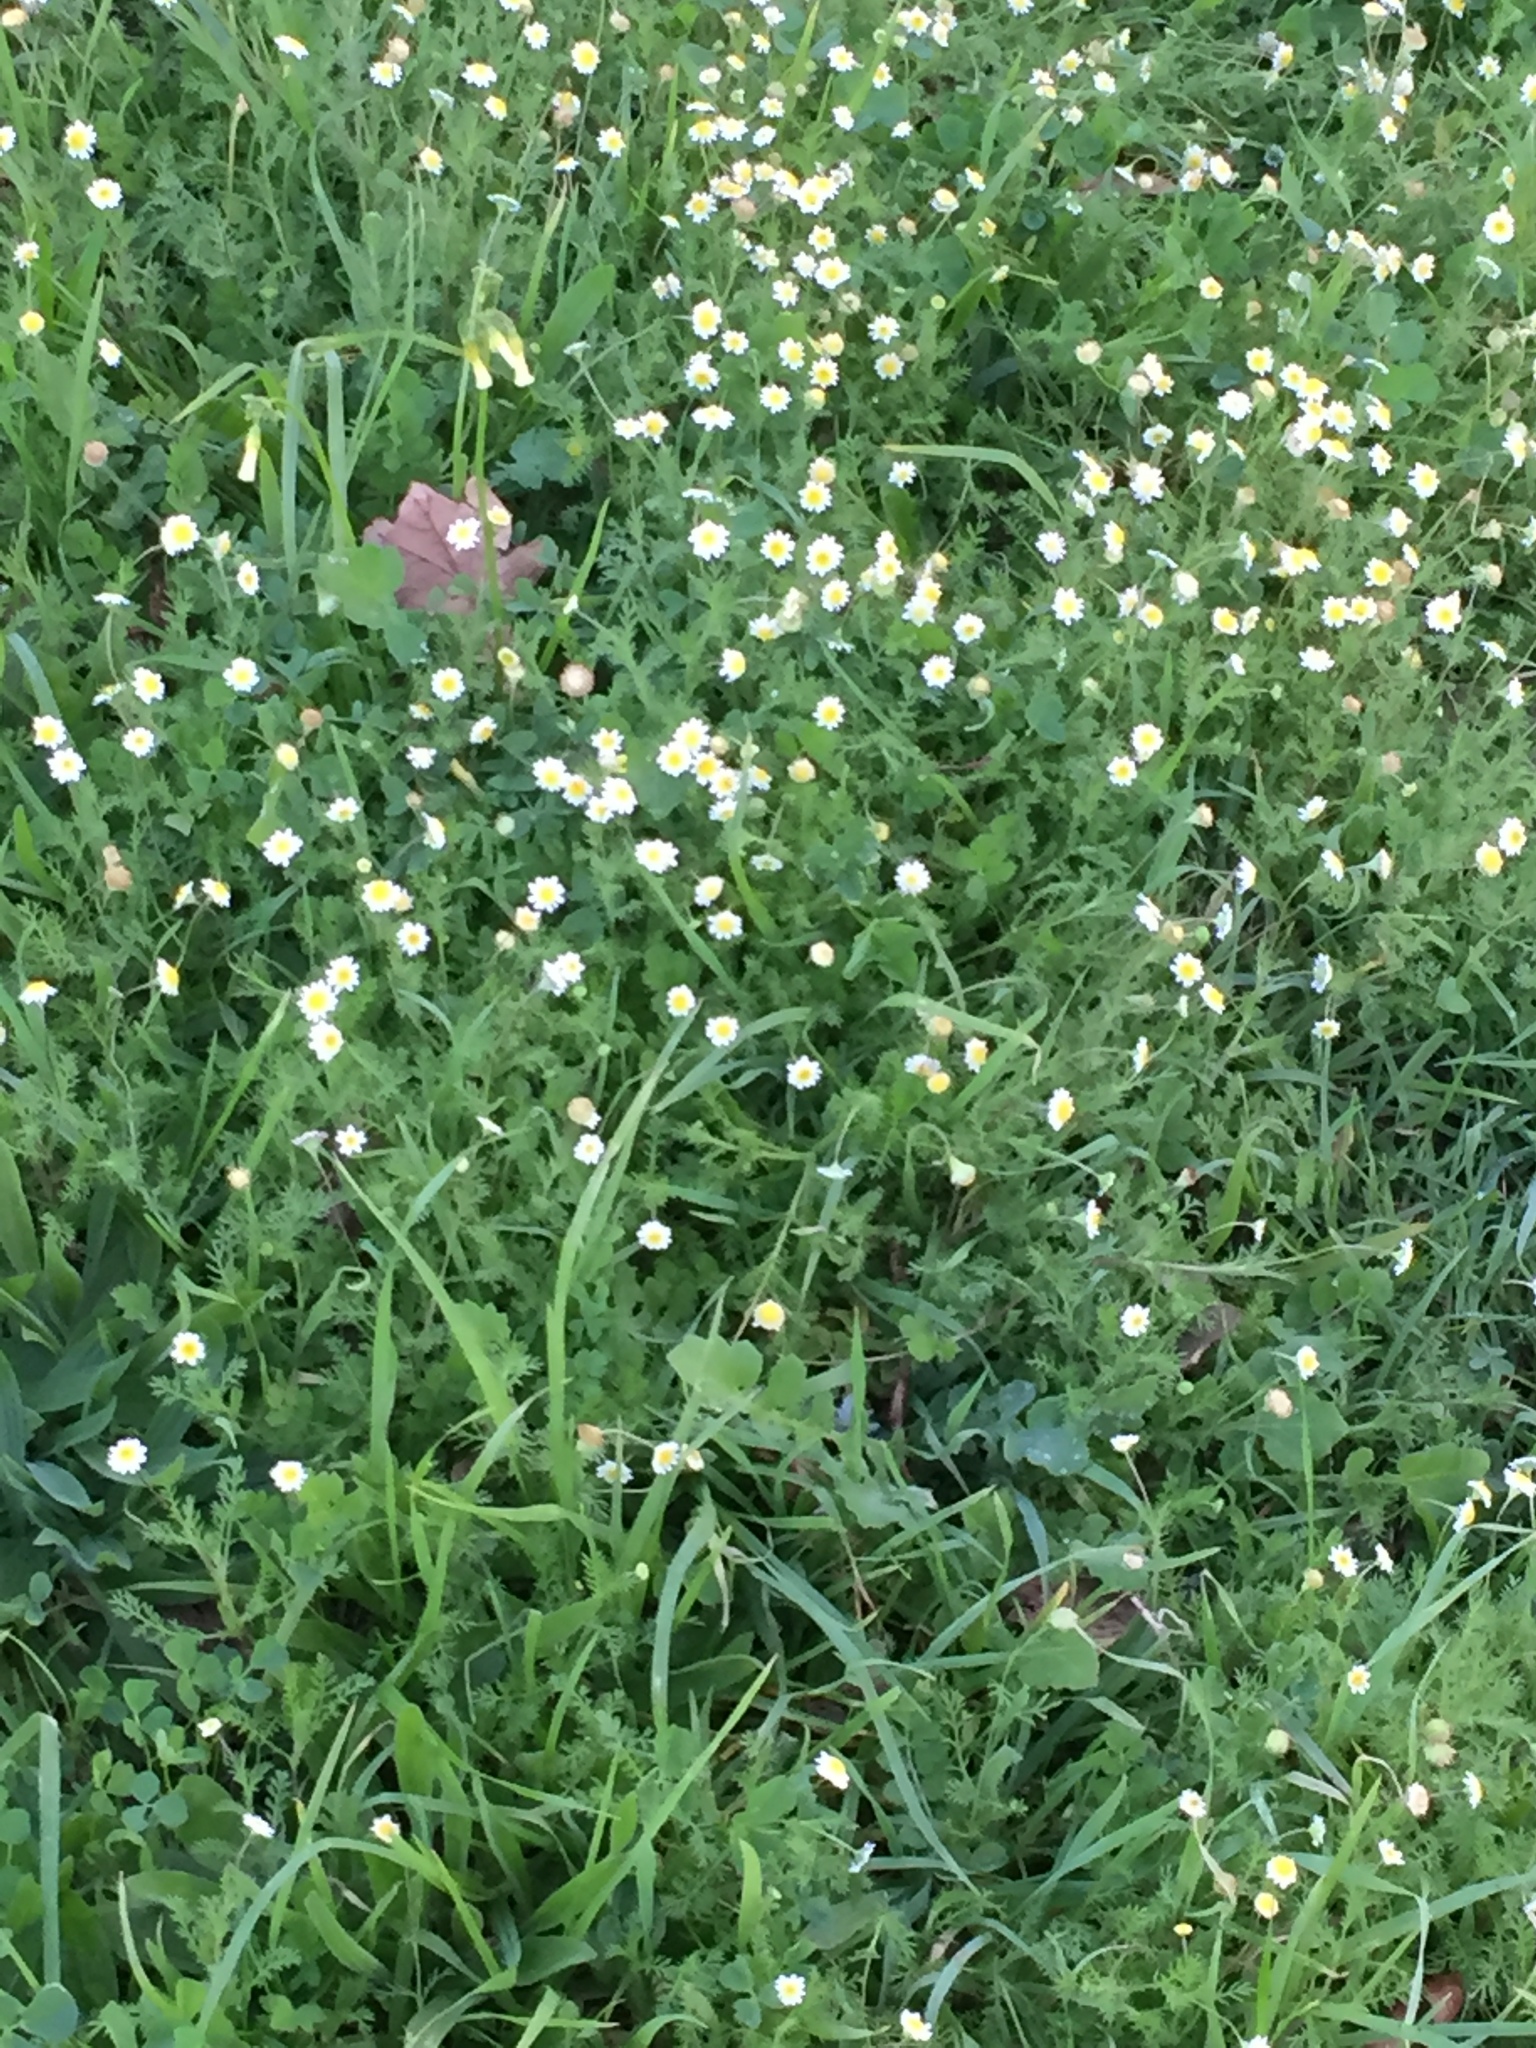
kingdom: Plantae
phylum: Tracheophyta
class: Magnoliopsida
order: Asterales
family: Asteraceae
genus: Cotula
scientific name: Cotula turbinata
